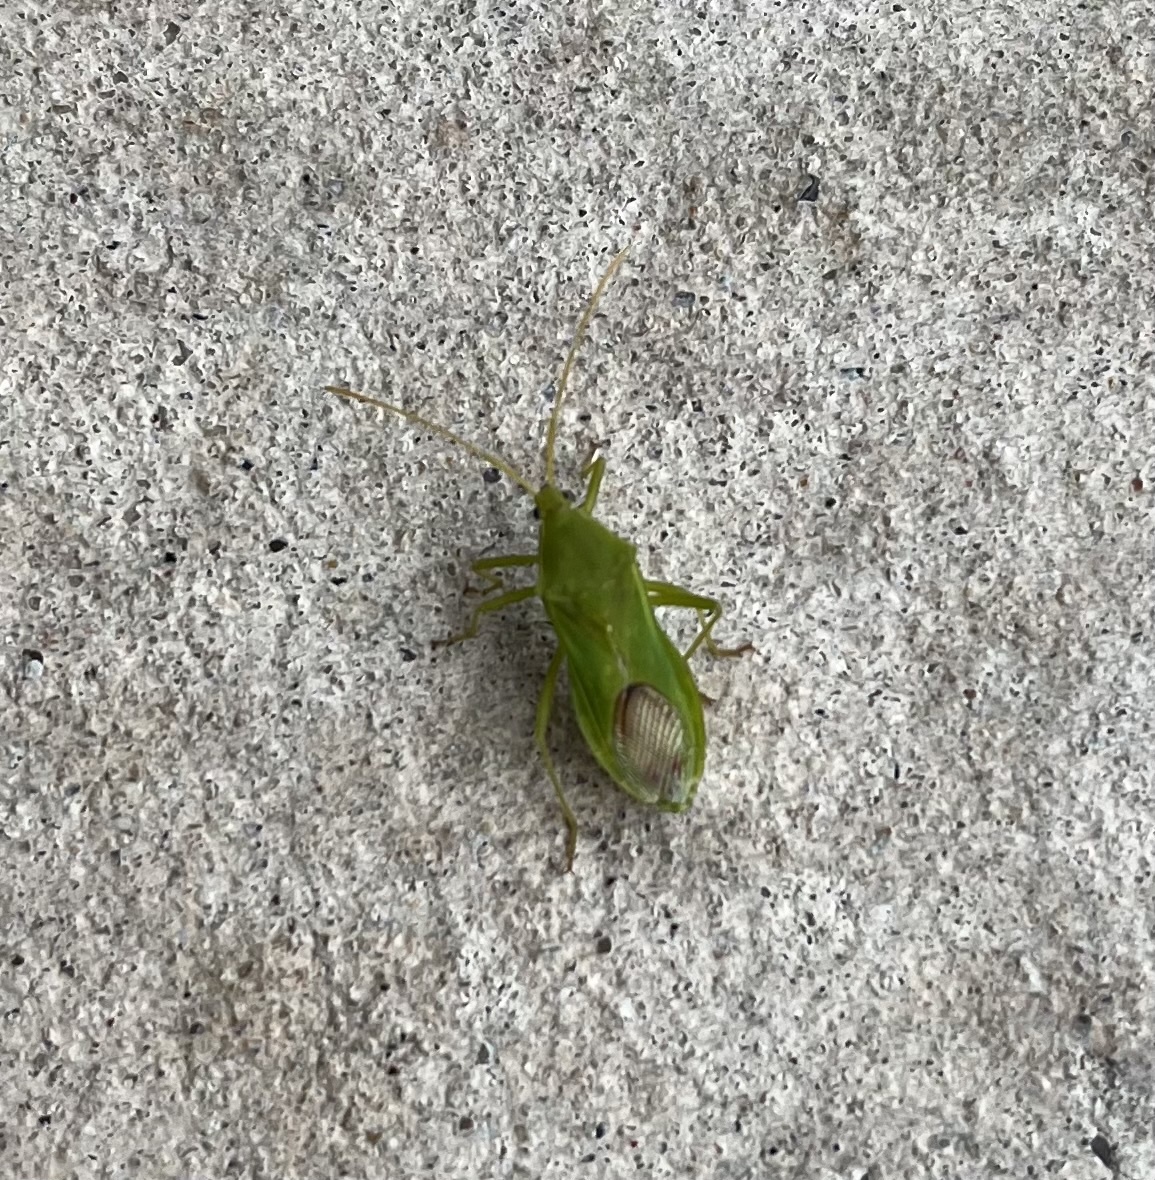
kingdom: Animalia
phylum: Arthropoda
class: Insecta
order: Hemiptera
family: Coreidae
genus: Savius
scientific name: Savius jurgiosus
